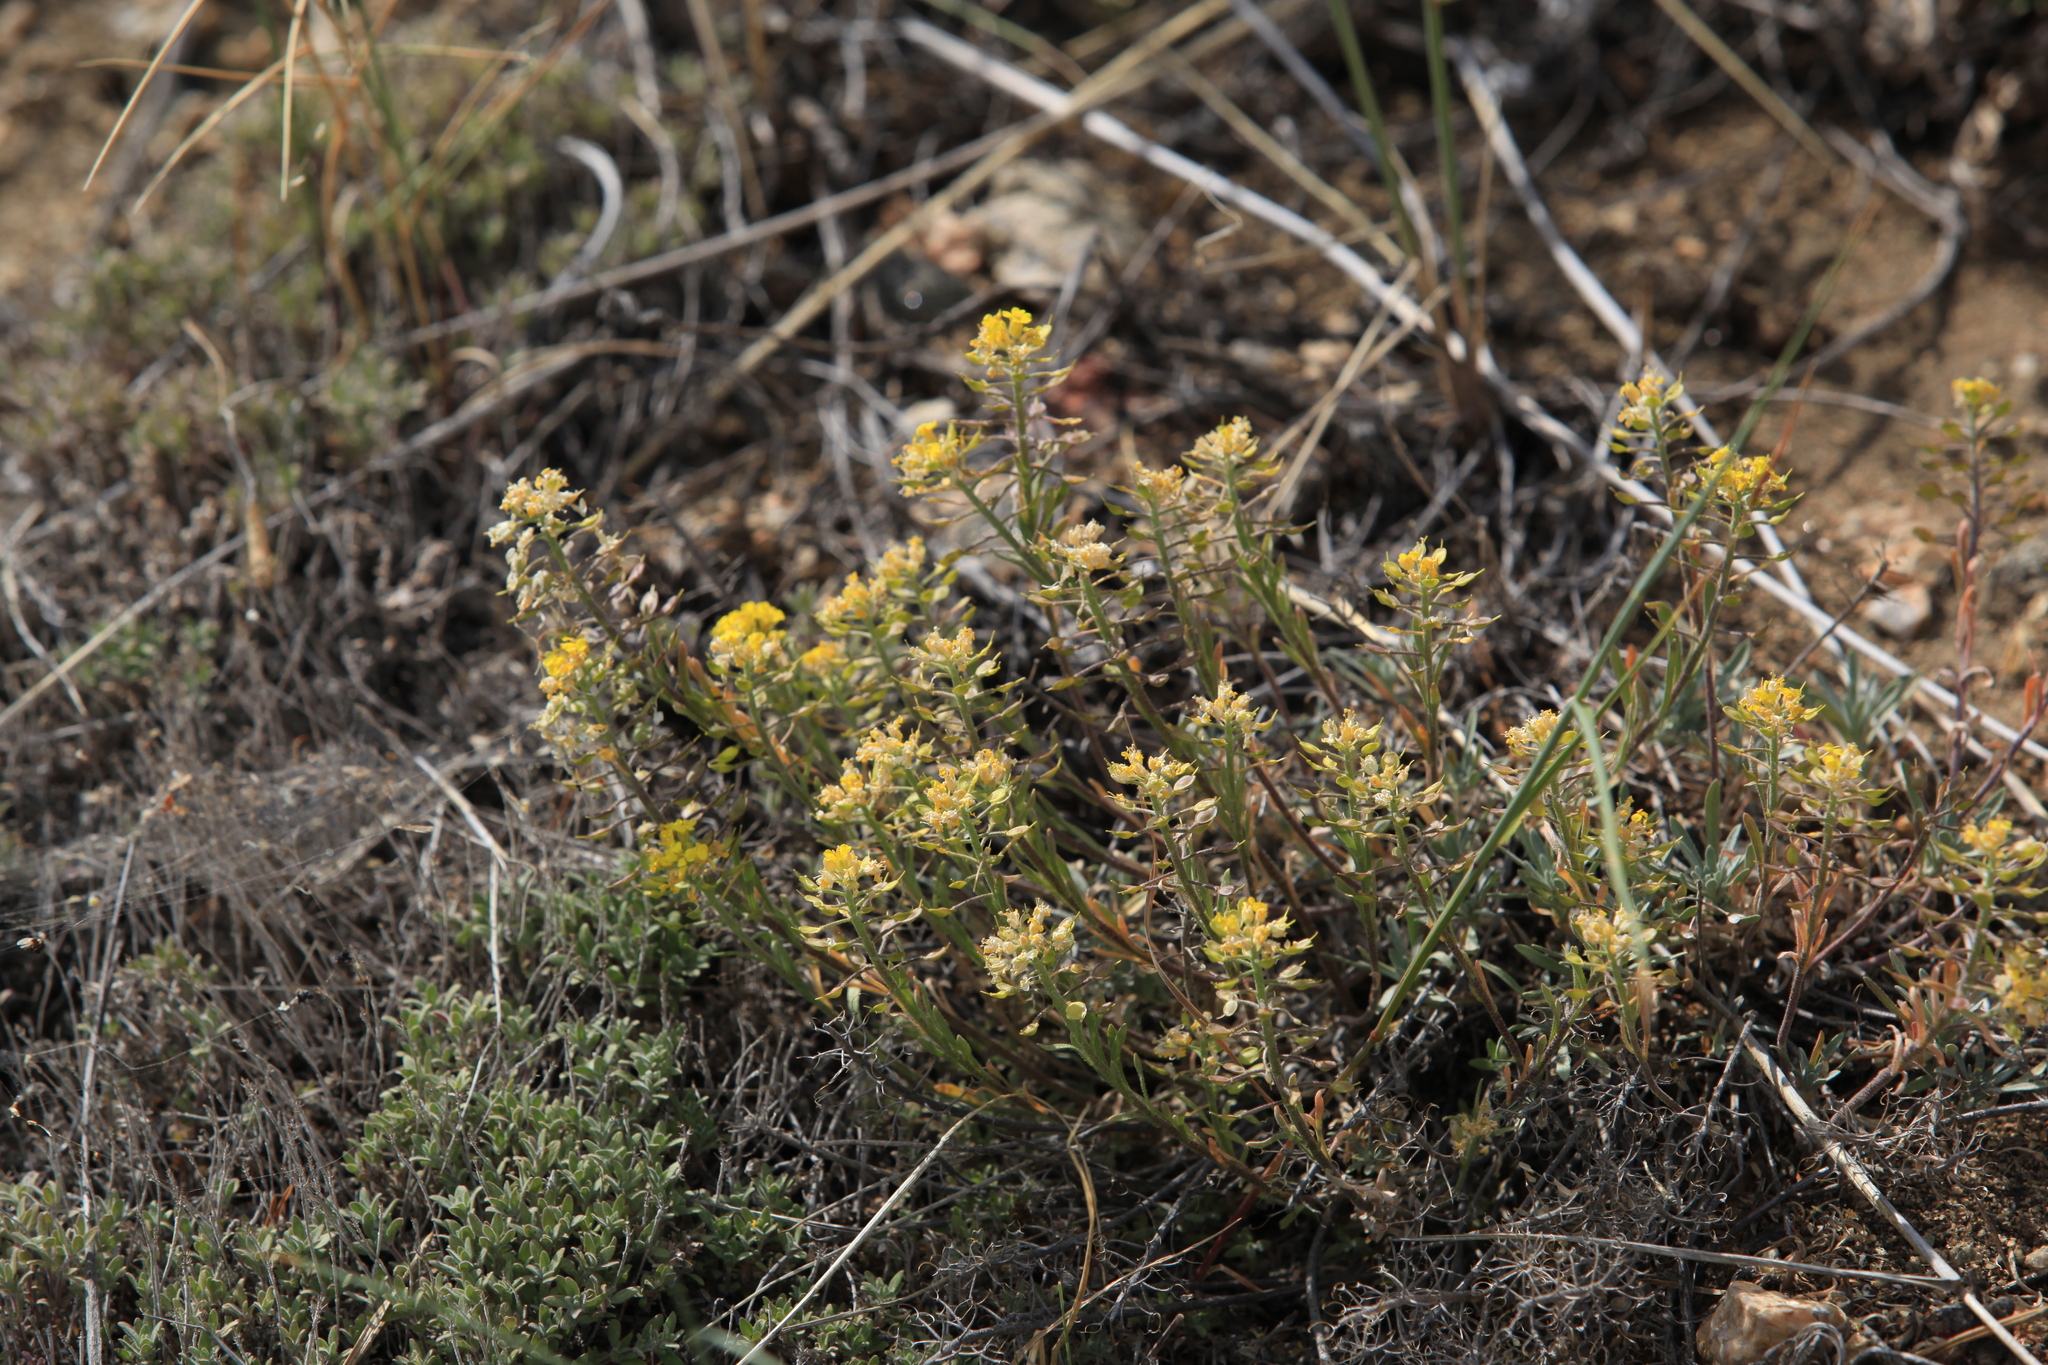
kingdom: Plantae
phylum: Tracheophyta
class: Magnoliopsida
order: Brassicales
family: Brassicaceae
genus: Alyssum
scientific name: Alyssum lenense
